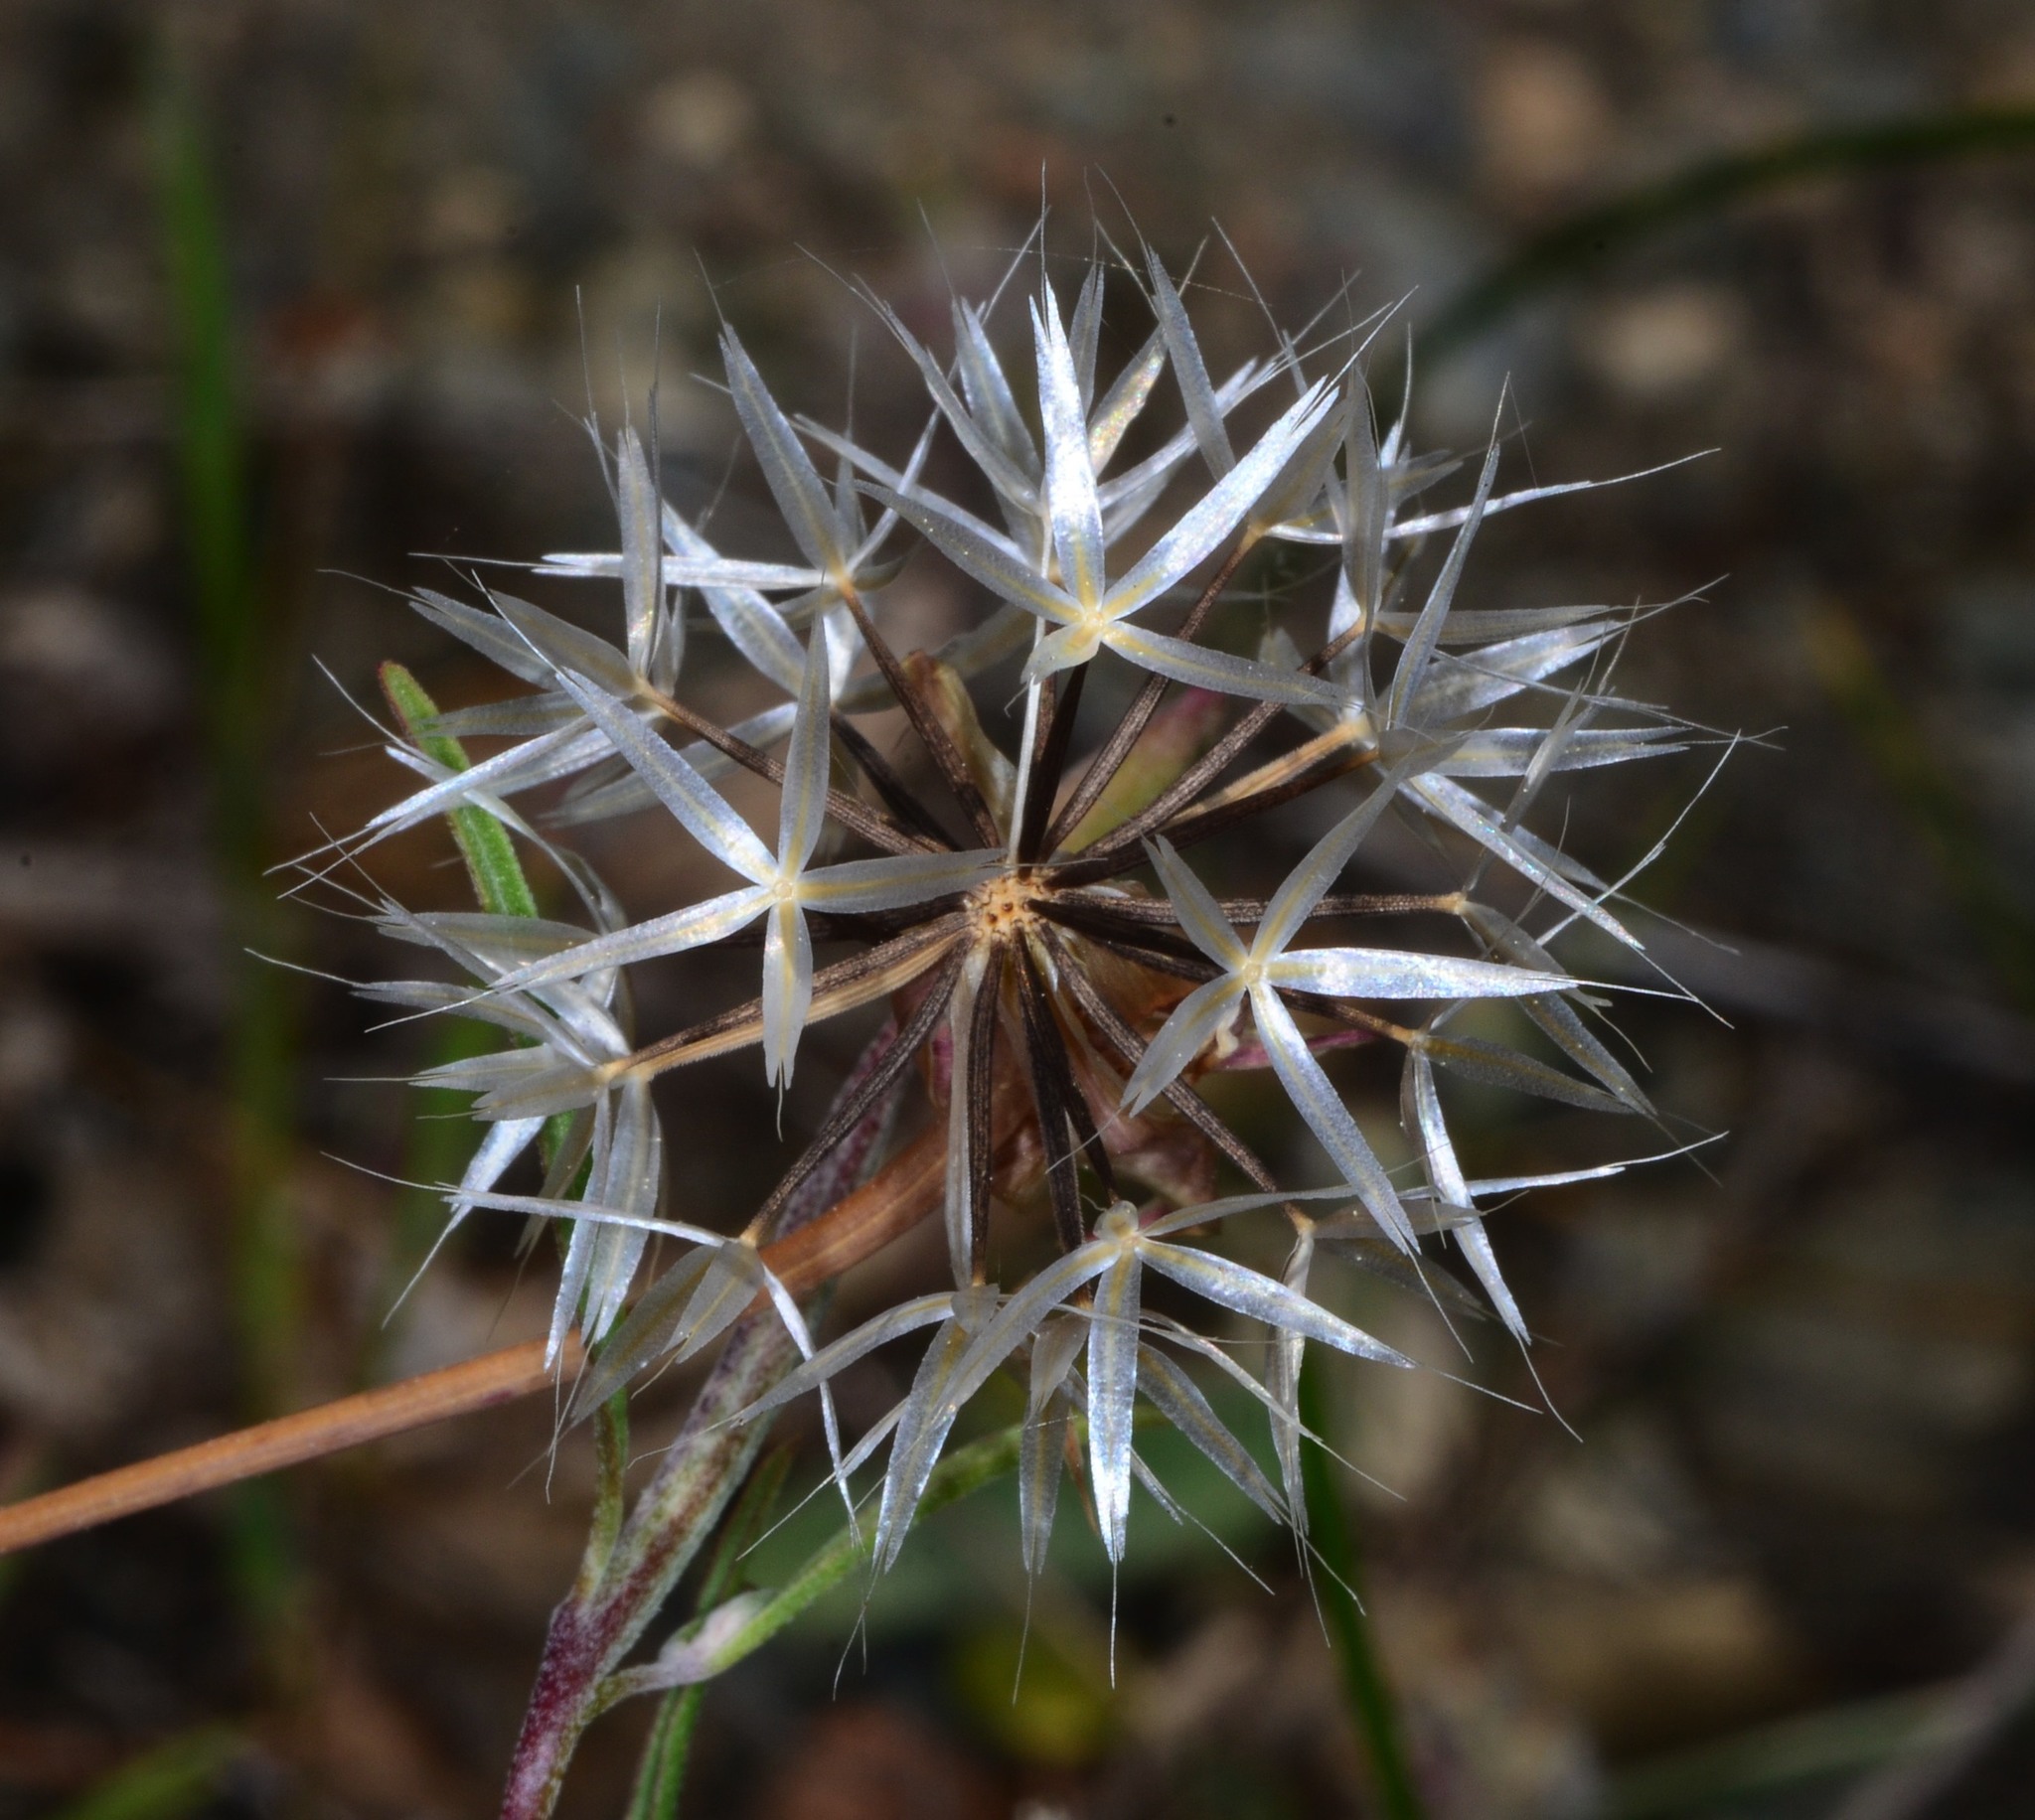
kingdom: Plantae
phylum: Tracheophyta
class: Magnoliopsida
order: Asterales
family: Asteraceae
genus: Microseris
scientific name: Microseris lindleyi
